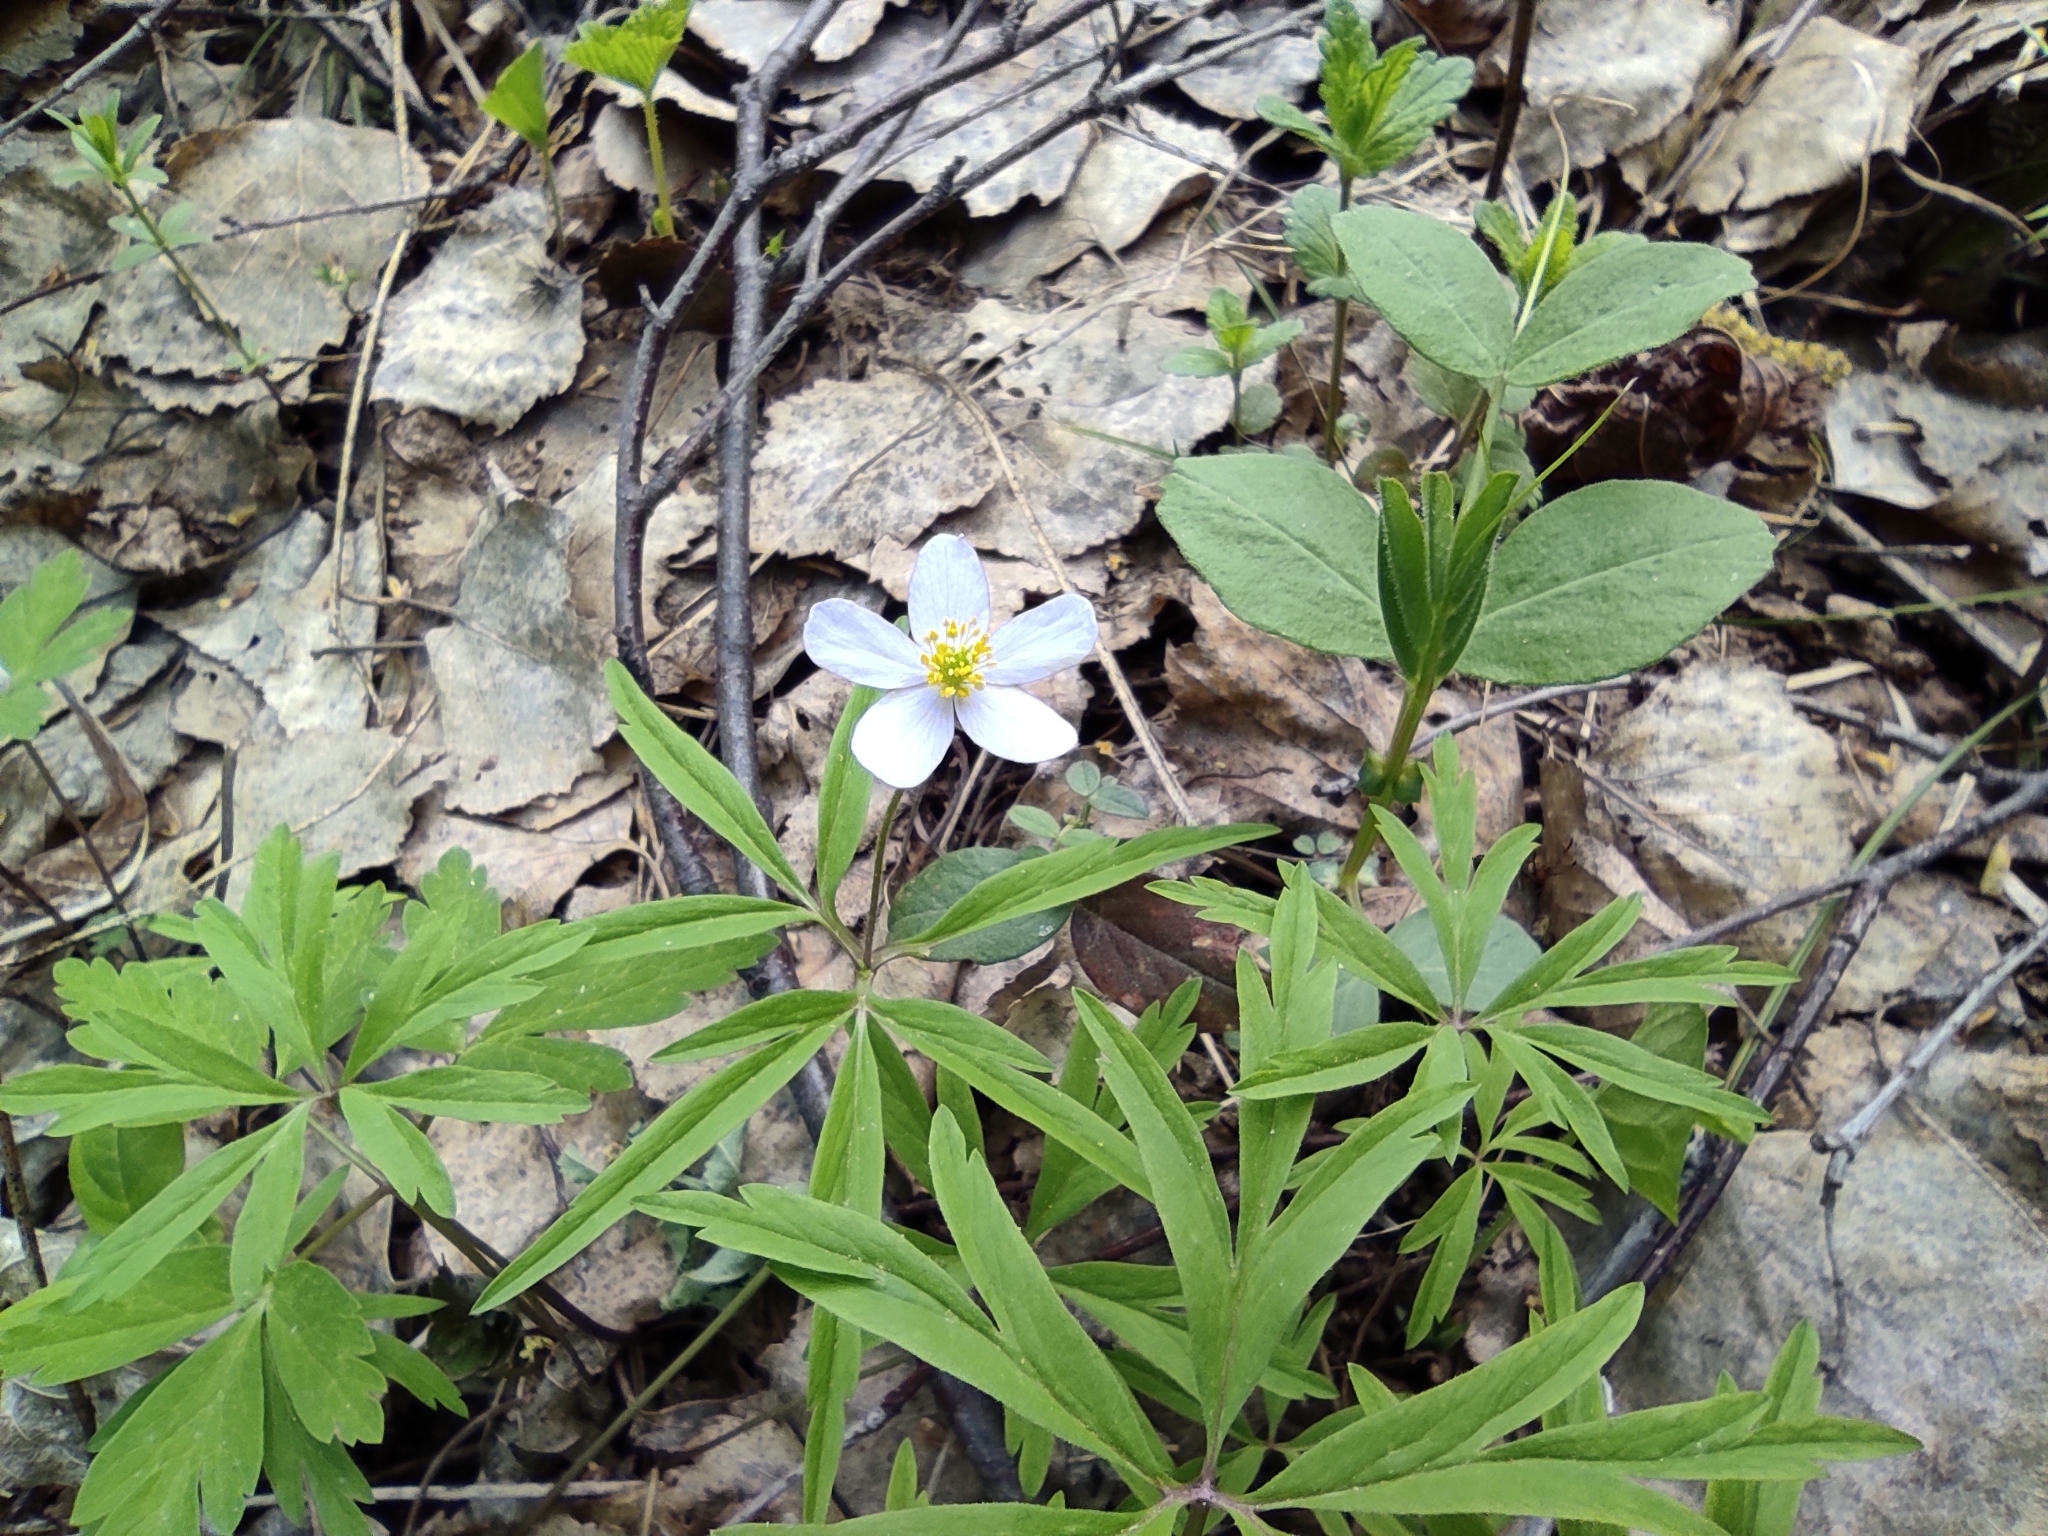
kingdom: Plantae
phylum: Tracheophyta
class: Magnoliopsida
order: Ranunculales
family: Ranunculaceae
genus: Anemone
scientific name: Anemone caerulea
